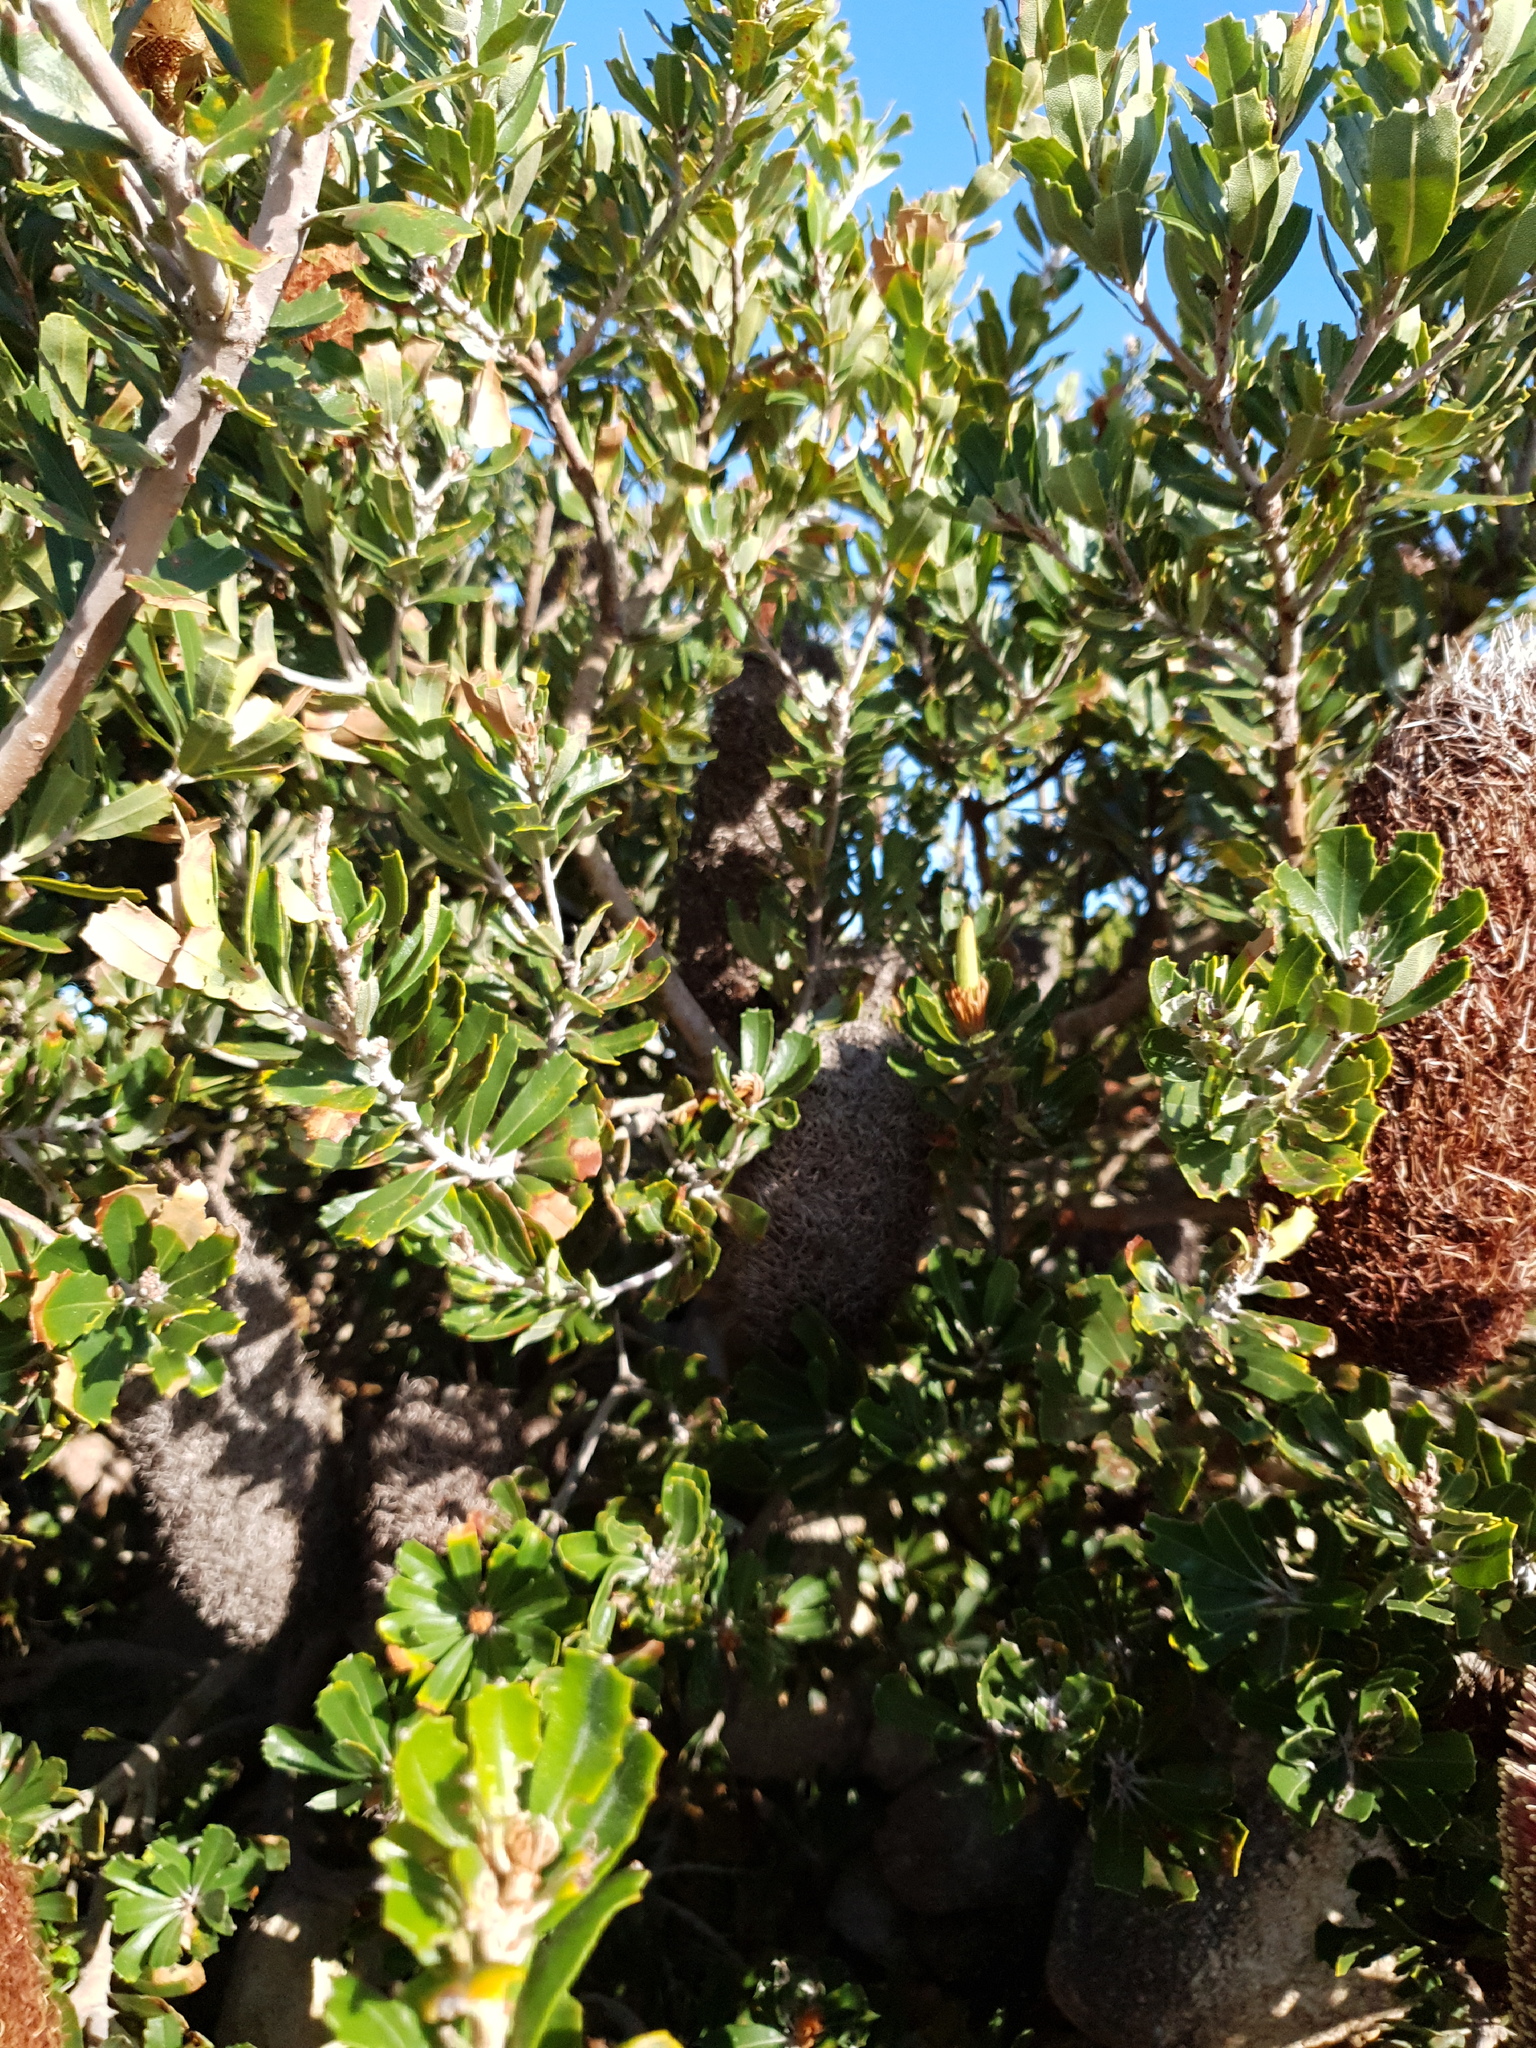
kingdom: Plantae
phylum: Tracheophyta
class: Magnoliopsida
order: Proteales
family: Proteaceae
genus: Banksia
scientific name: Banksia praemorsa
